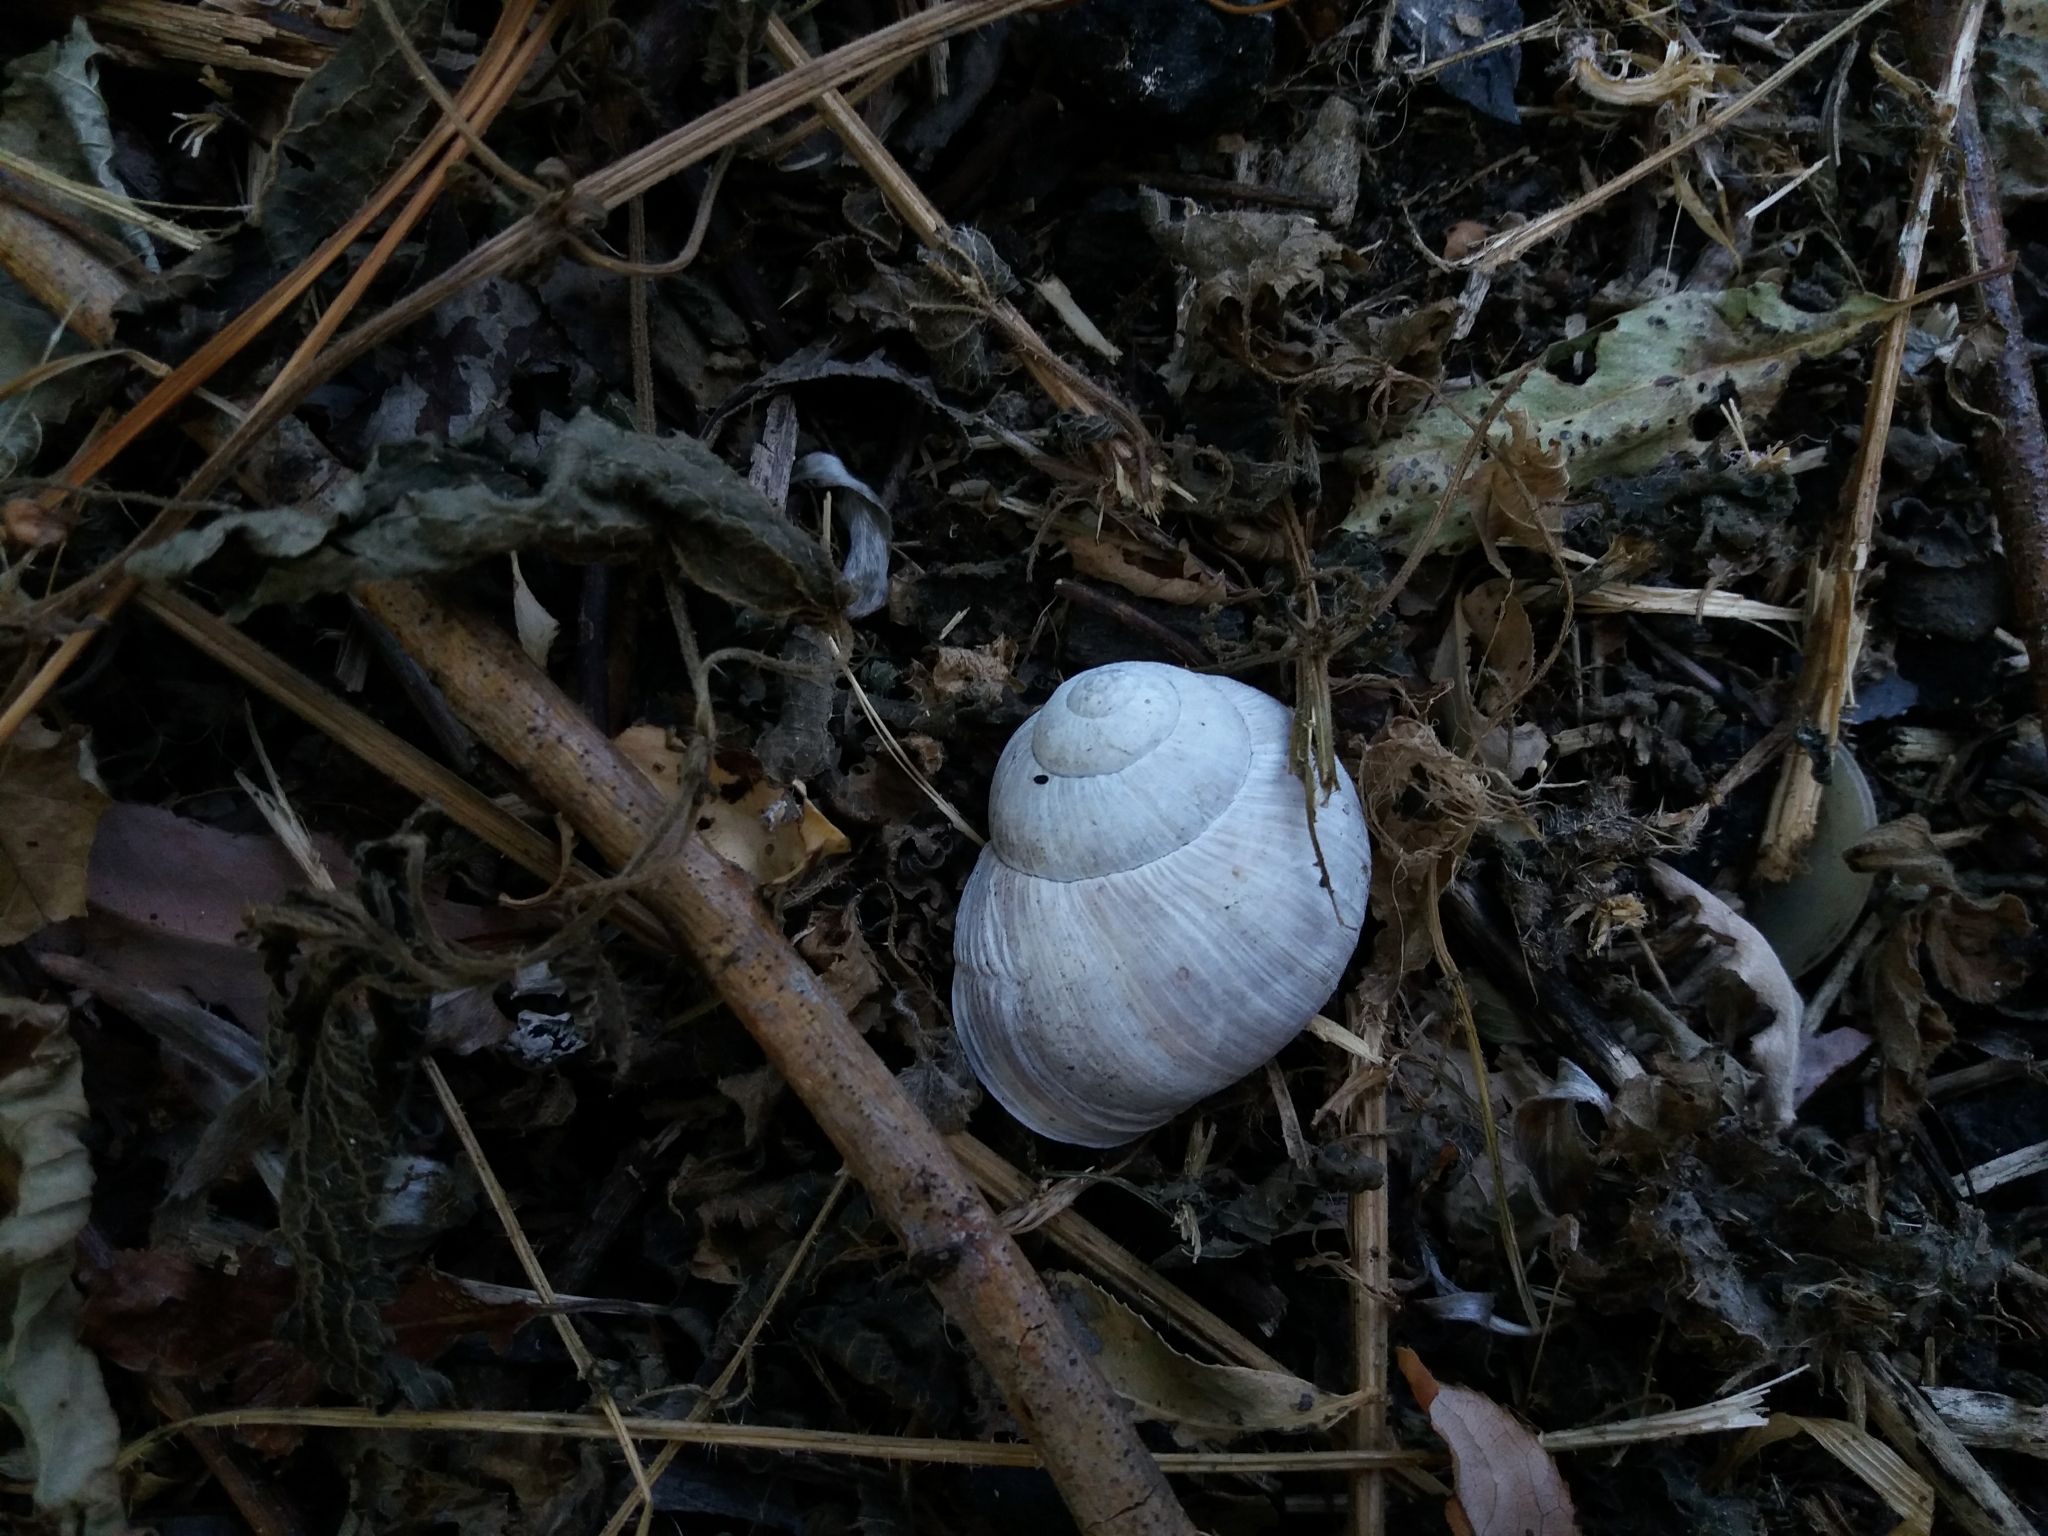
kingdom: Animalia
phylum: Mollusca
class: Gastropoda
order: Stylommatophora
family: Helicidae
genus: Helix
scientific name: Helix pomatia
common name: Roman snail
